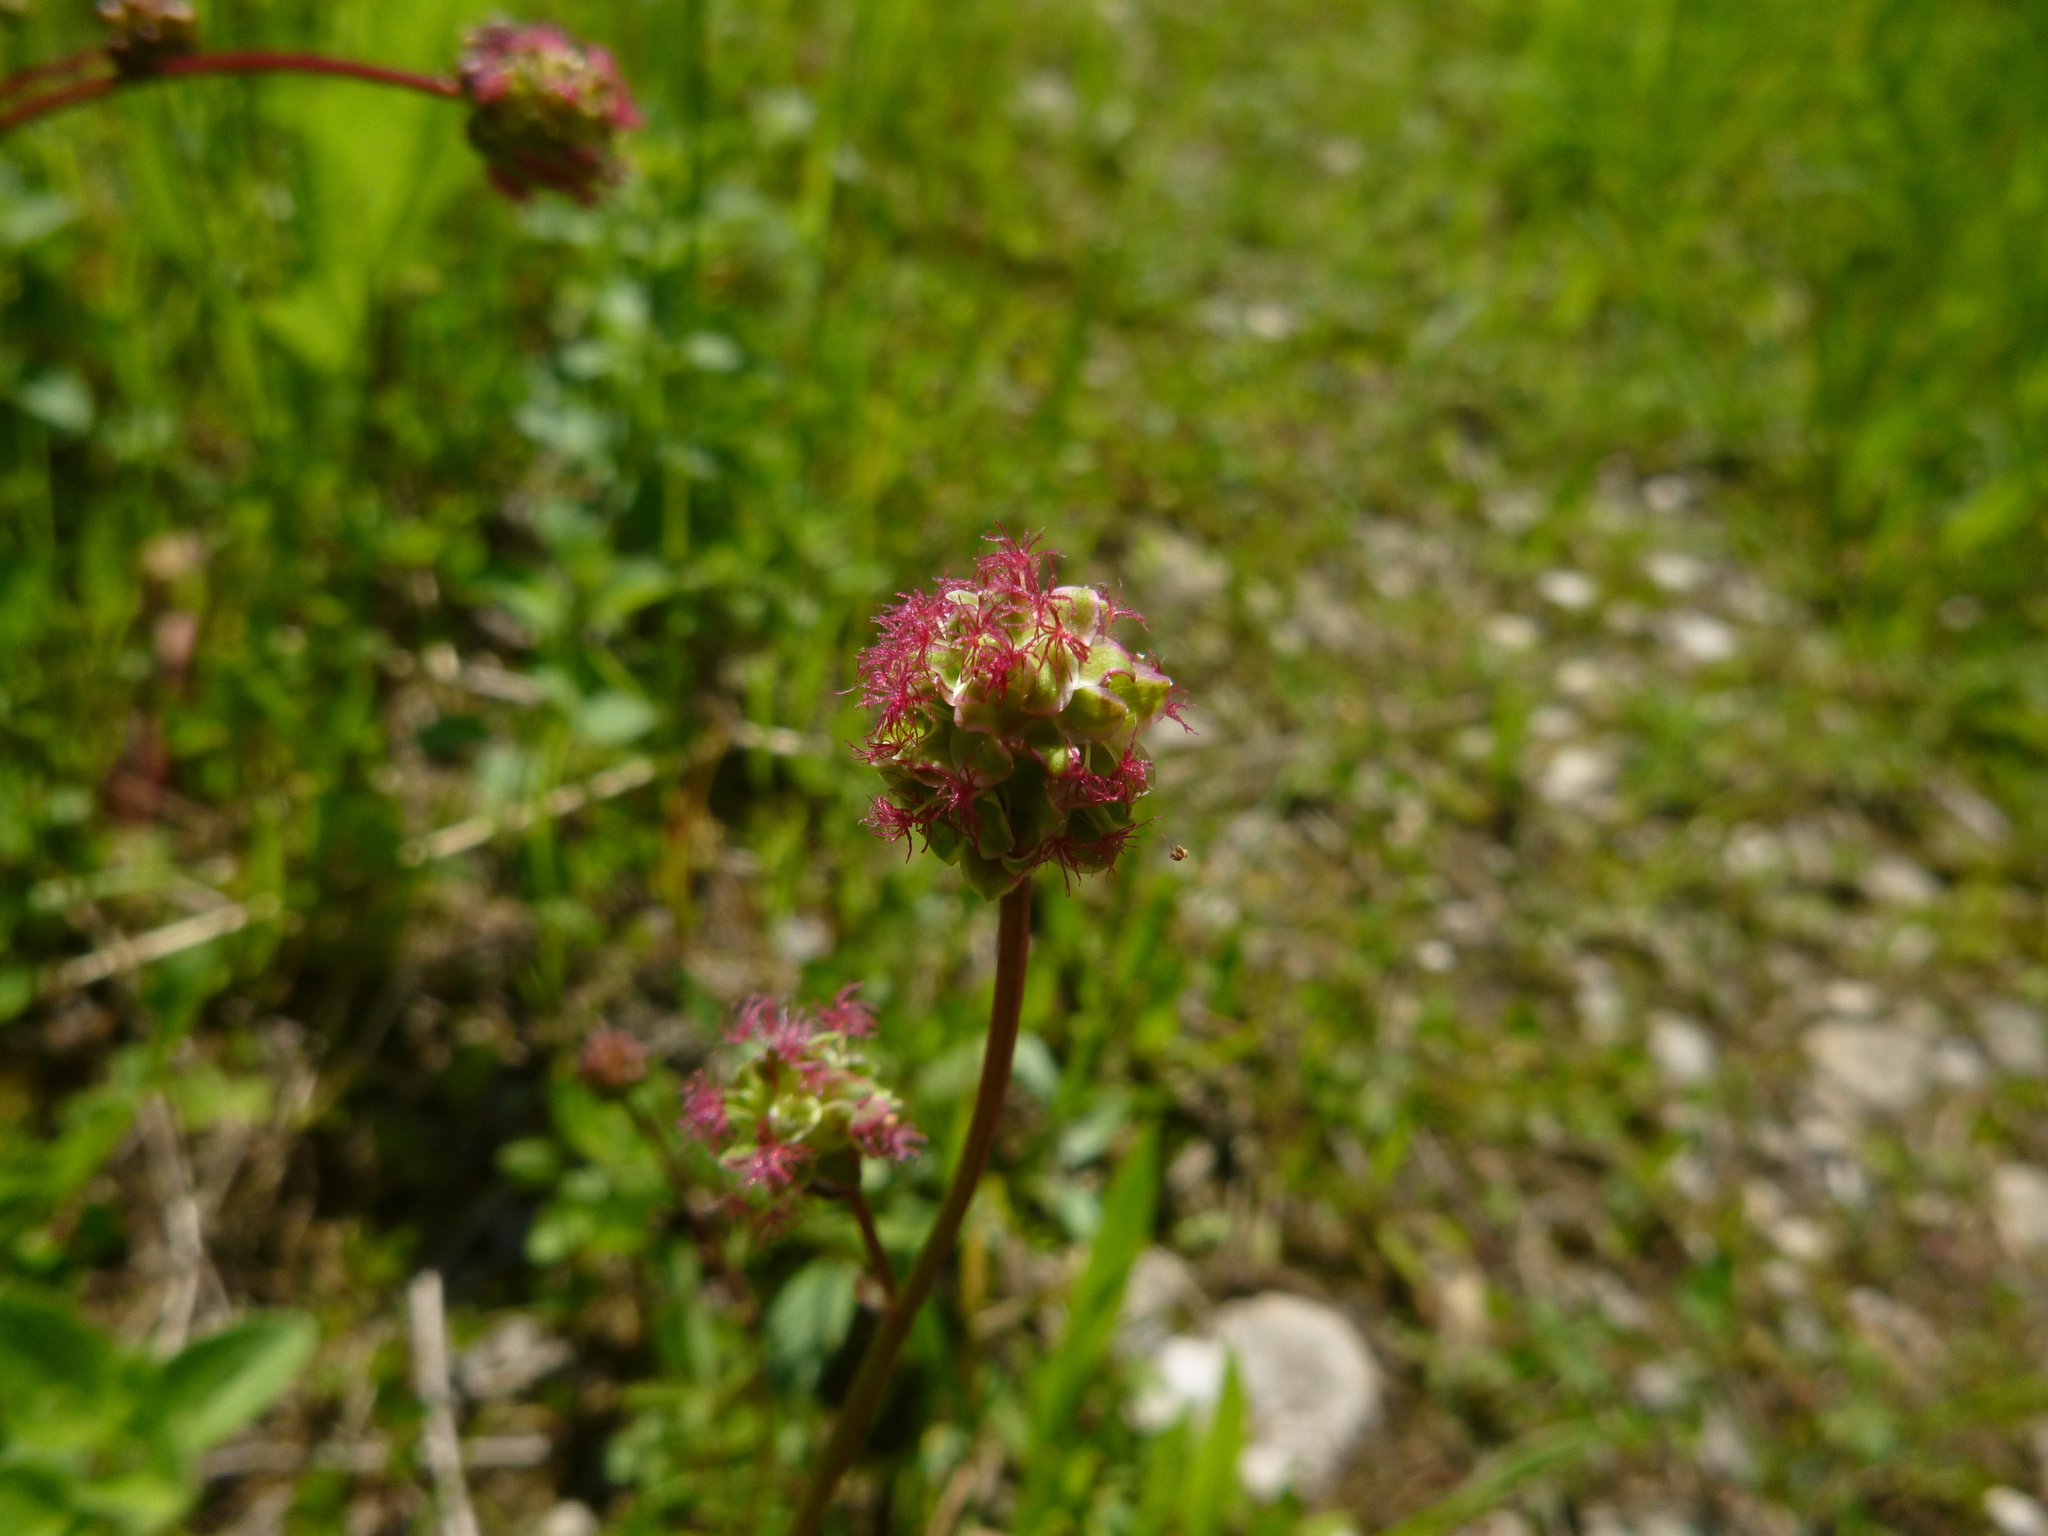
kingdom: Plantae
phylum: Tracheophyta
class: Magnoliopsida
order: Rosales
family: Rosaceae
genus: Poterium
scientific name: Poterium sanguisorba
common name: Salad burnet
